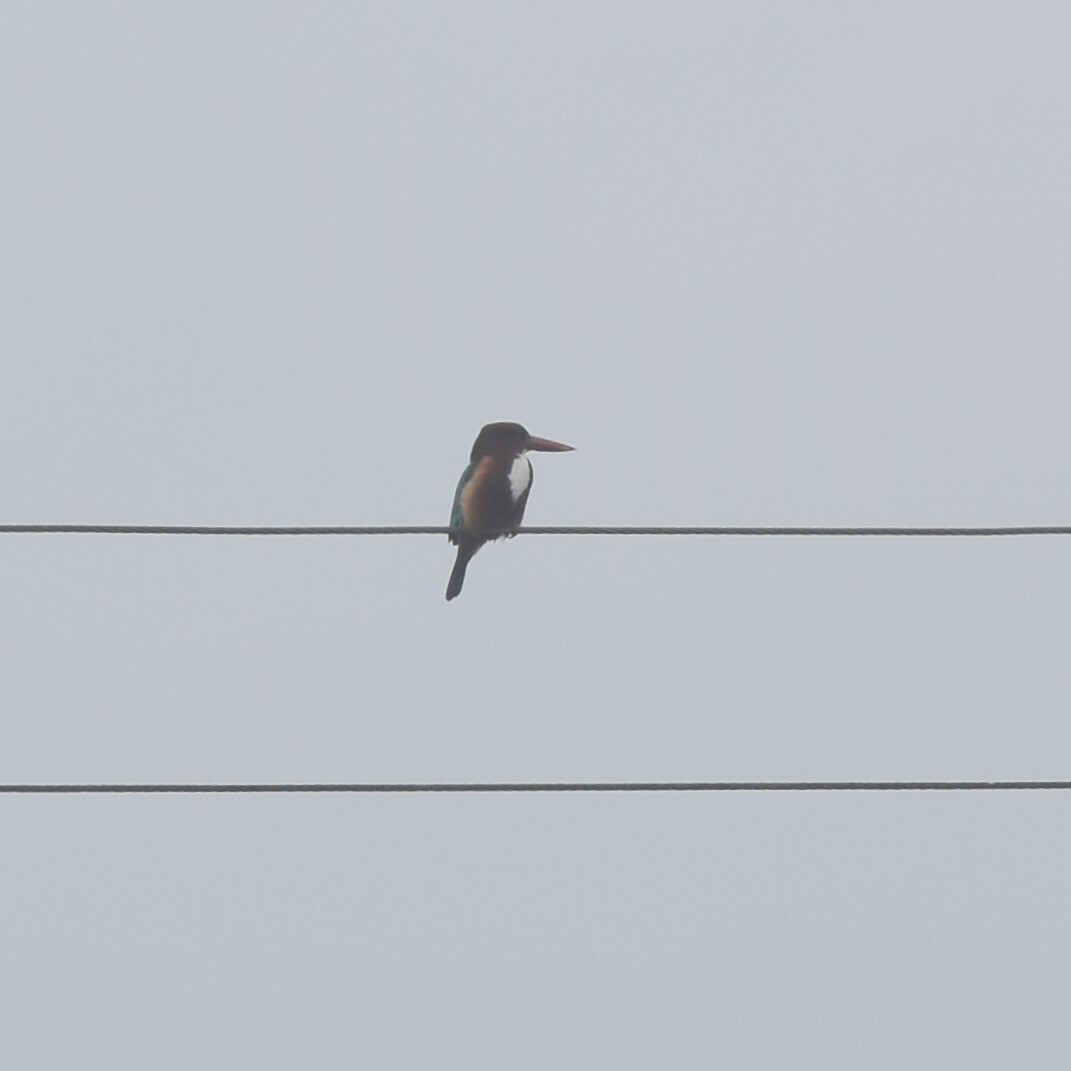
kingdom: Animalia
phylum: Chordata
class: Aves
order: Coraciiformes
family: Alcedinidae
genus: Halcyon
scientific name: Halcyon smyrnensis
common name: White-throated kingfisher
